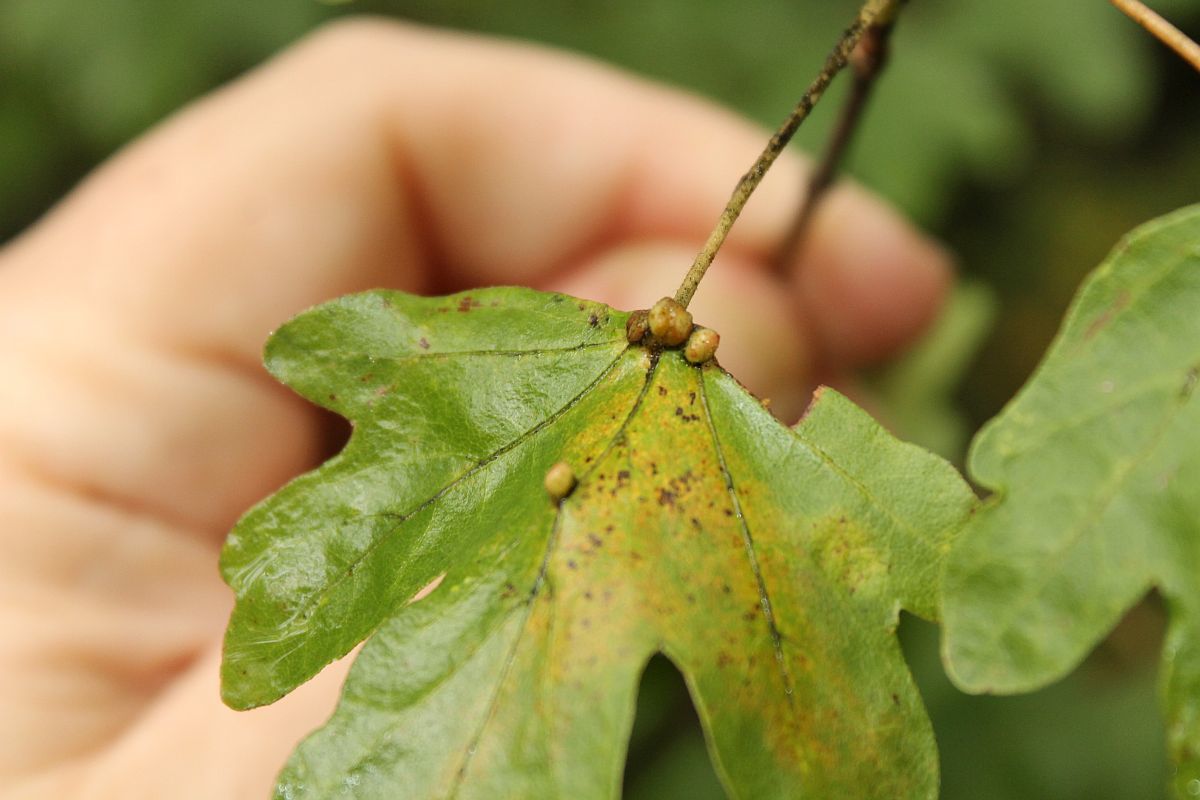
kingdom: Animalia
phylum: Arthropoda
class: Arachnida
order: Trombidiformes
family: Eriophyidae
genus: Aceria
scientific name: Aceria macrochelus
